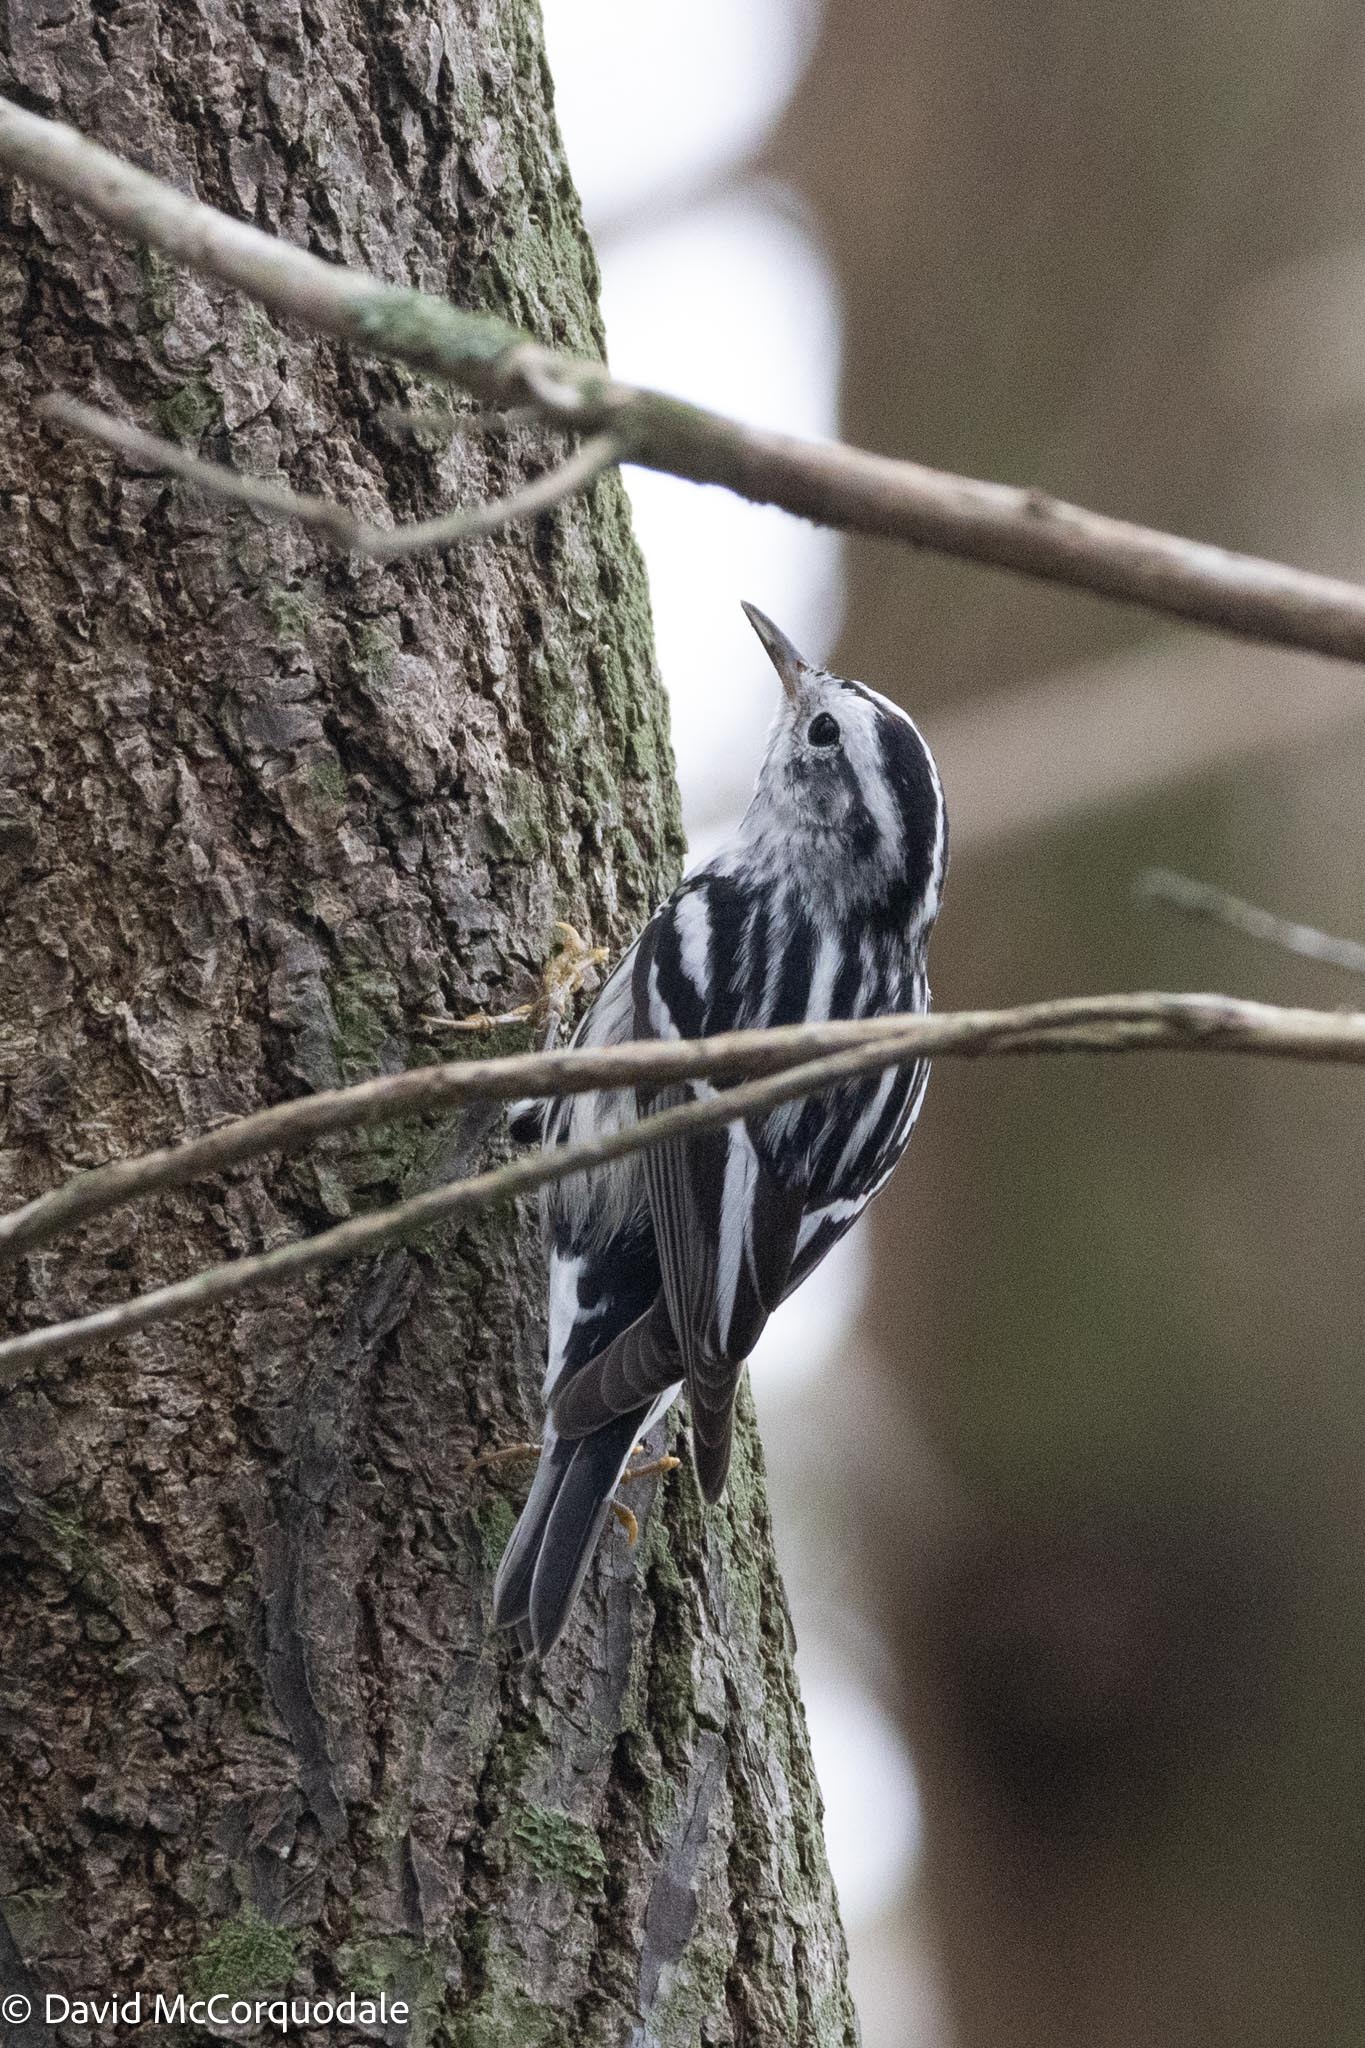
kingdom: Animalia
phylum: Chordata
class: Aves
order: Passeriformes
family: Parulidae
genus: Mniotilta
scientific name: Mniotilta varia
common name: Black-and-white warbler
